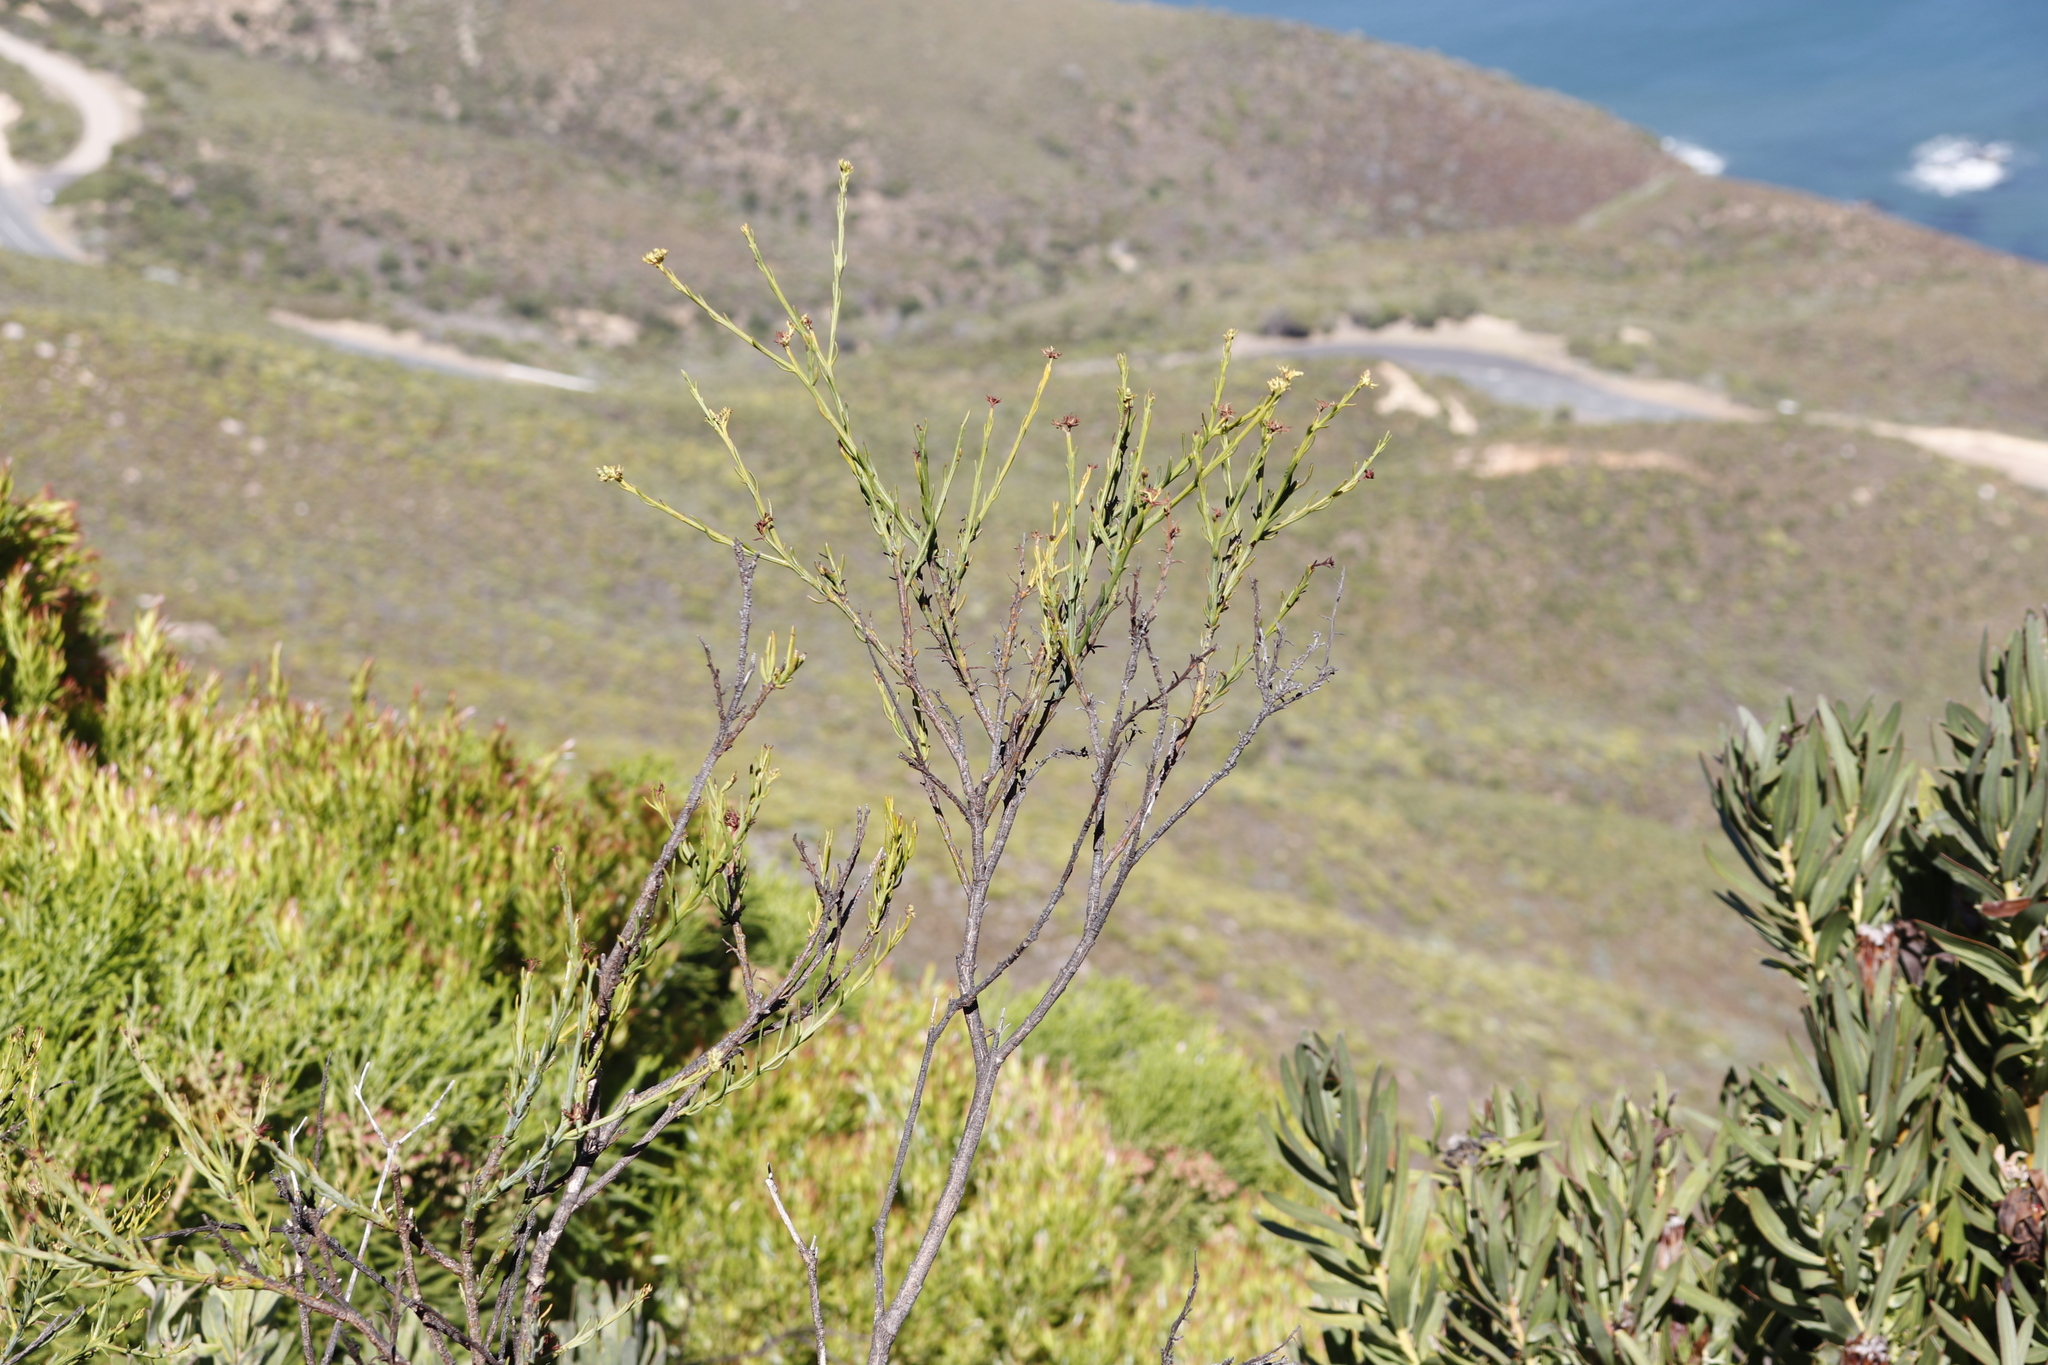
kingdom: Plantae
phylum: Tracheophyta
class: Magnoliopsida
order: Santalales
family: Thesiaceae
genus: Thesium
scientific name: Thesium strictum
